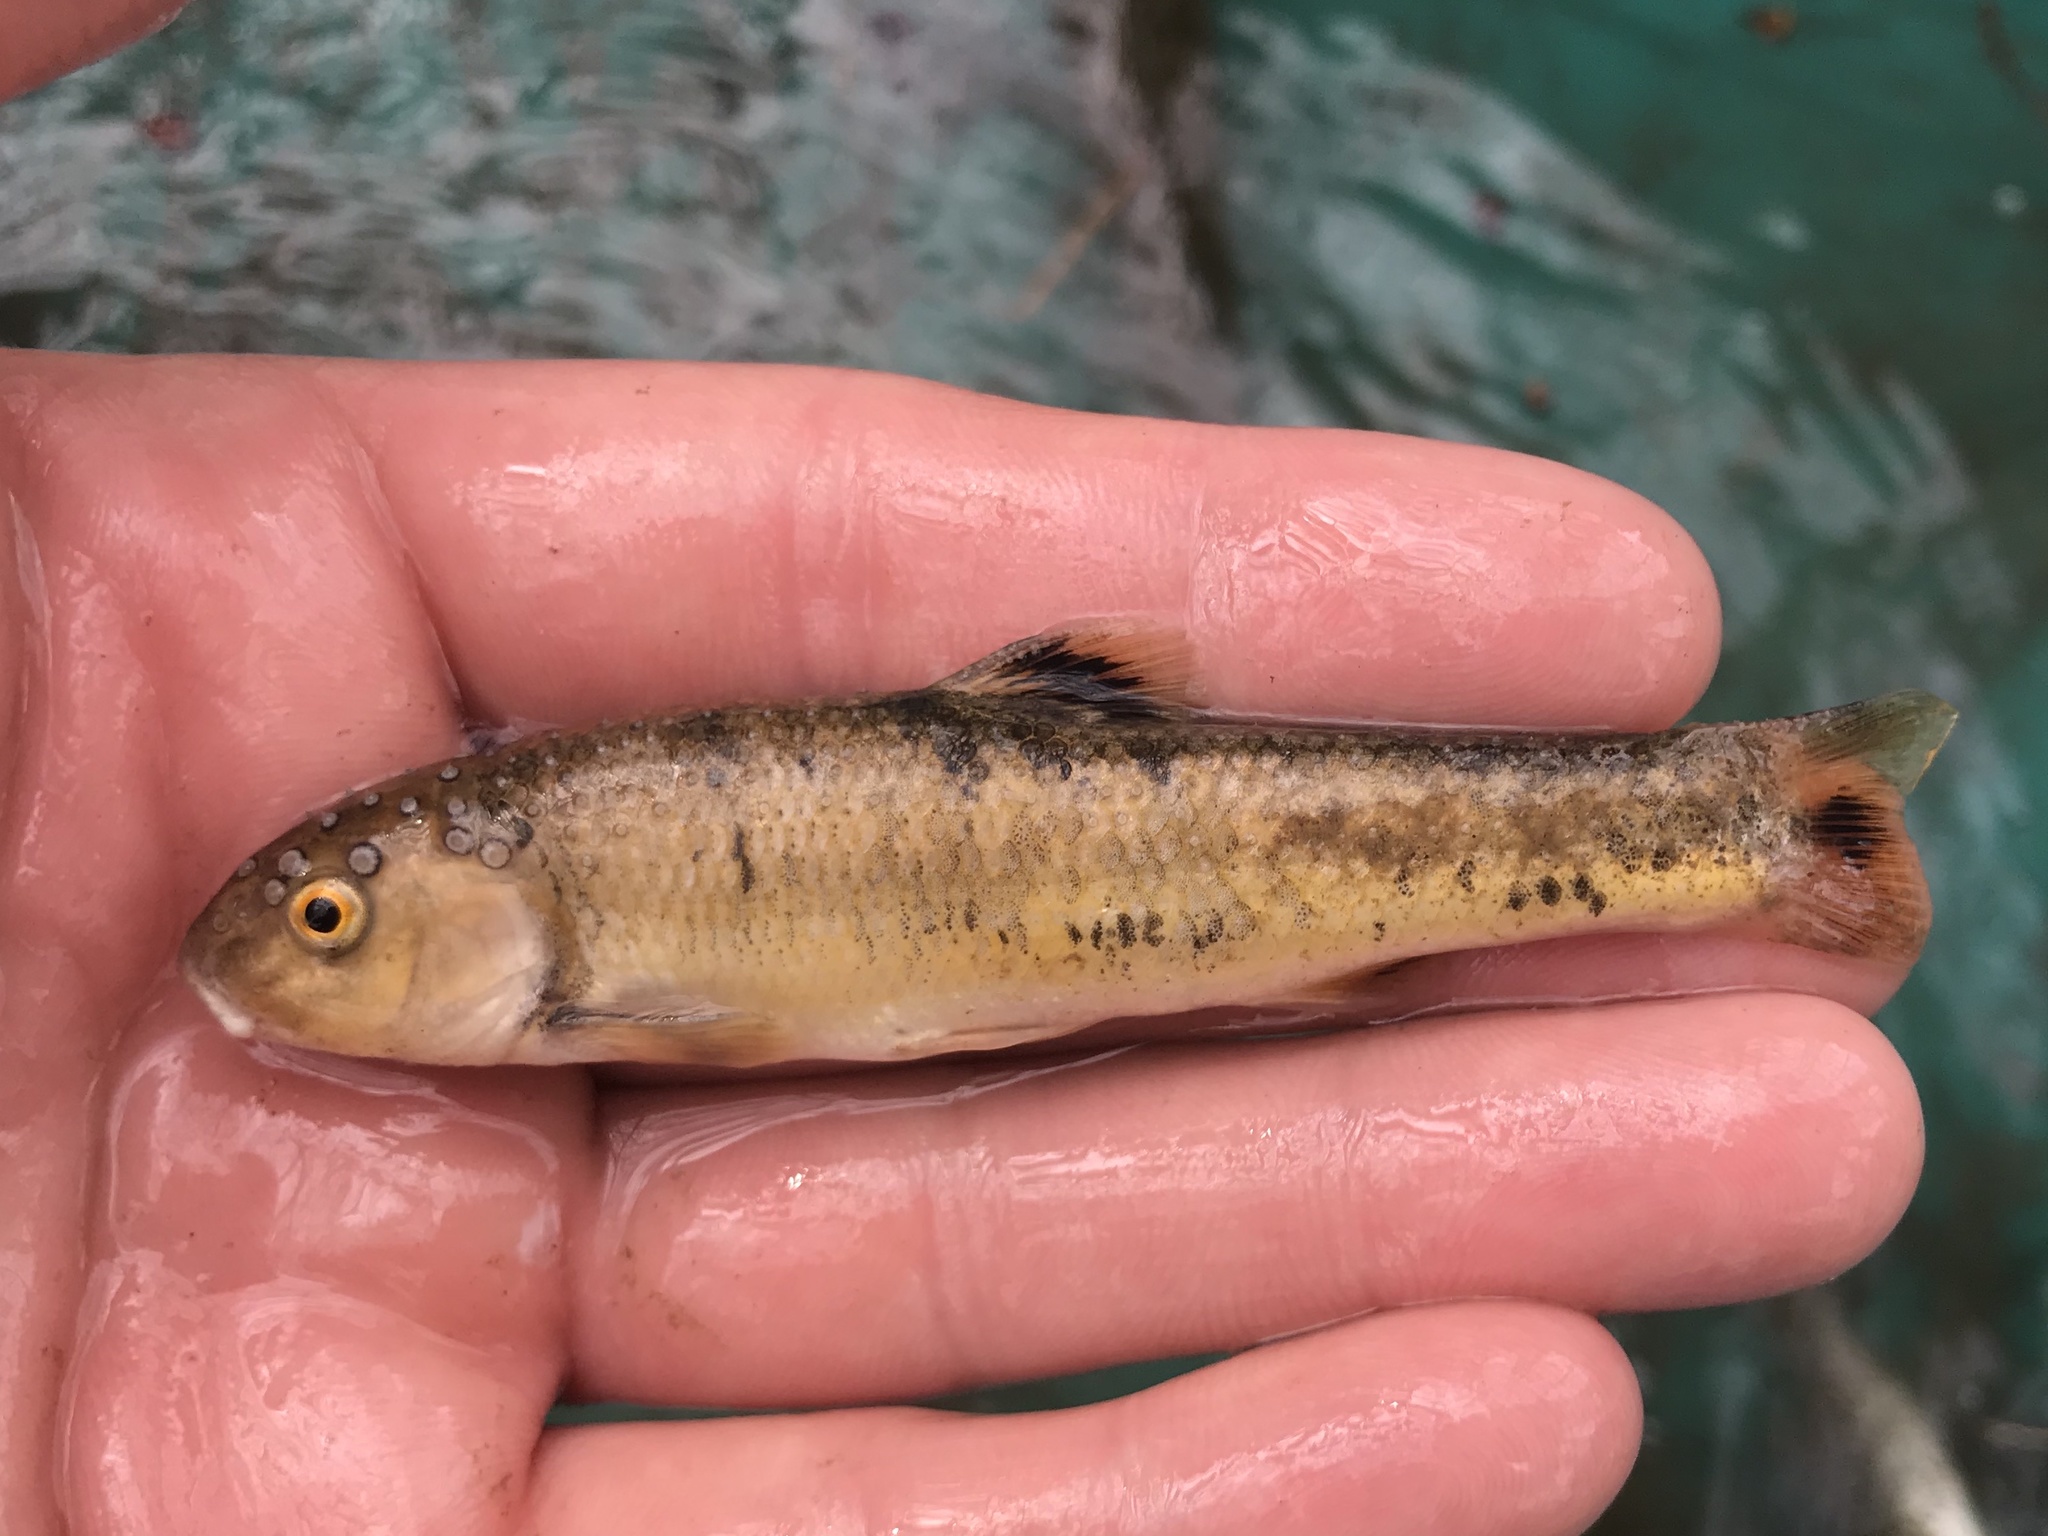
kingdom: Animalia
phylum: Chordata
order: Cypriniformes
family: Cyprinidae
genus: Campostoma
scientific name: Campostoma anomalum
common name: Central stoneroller
